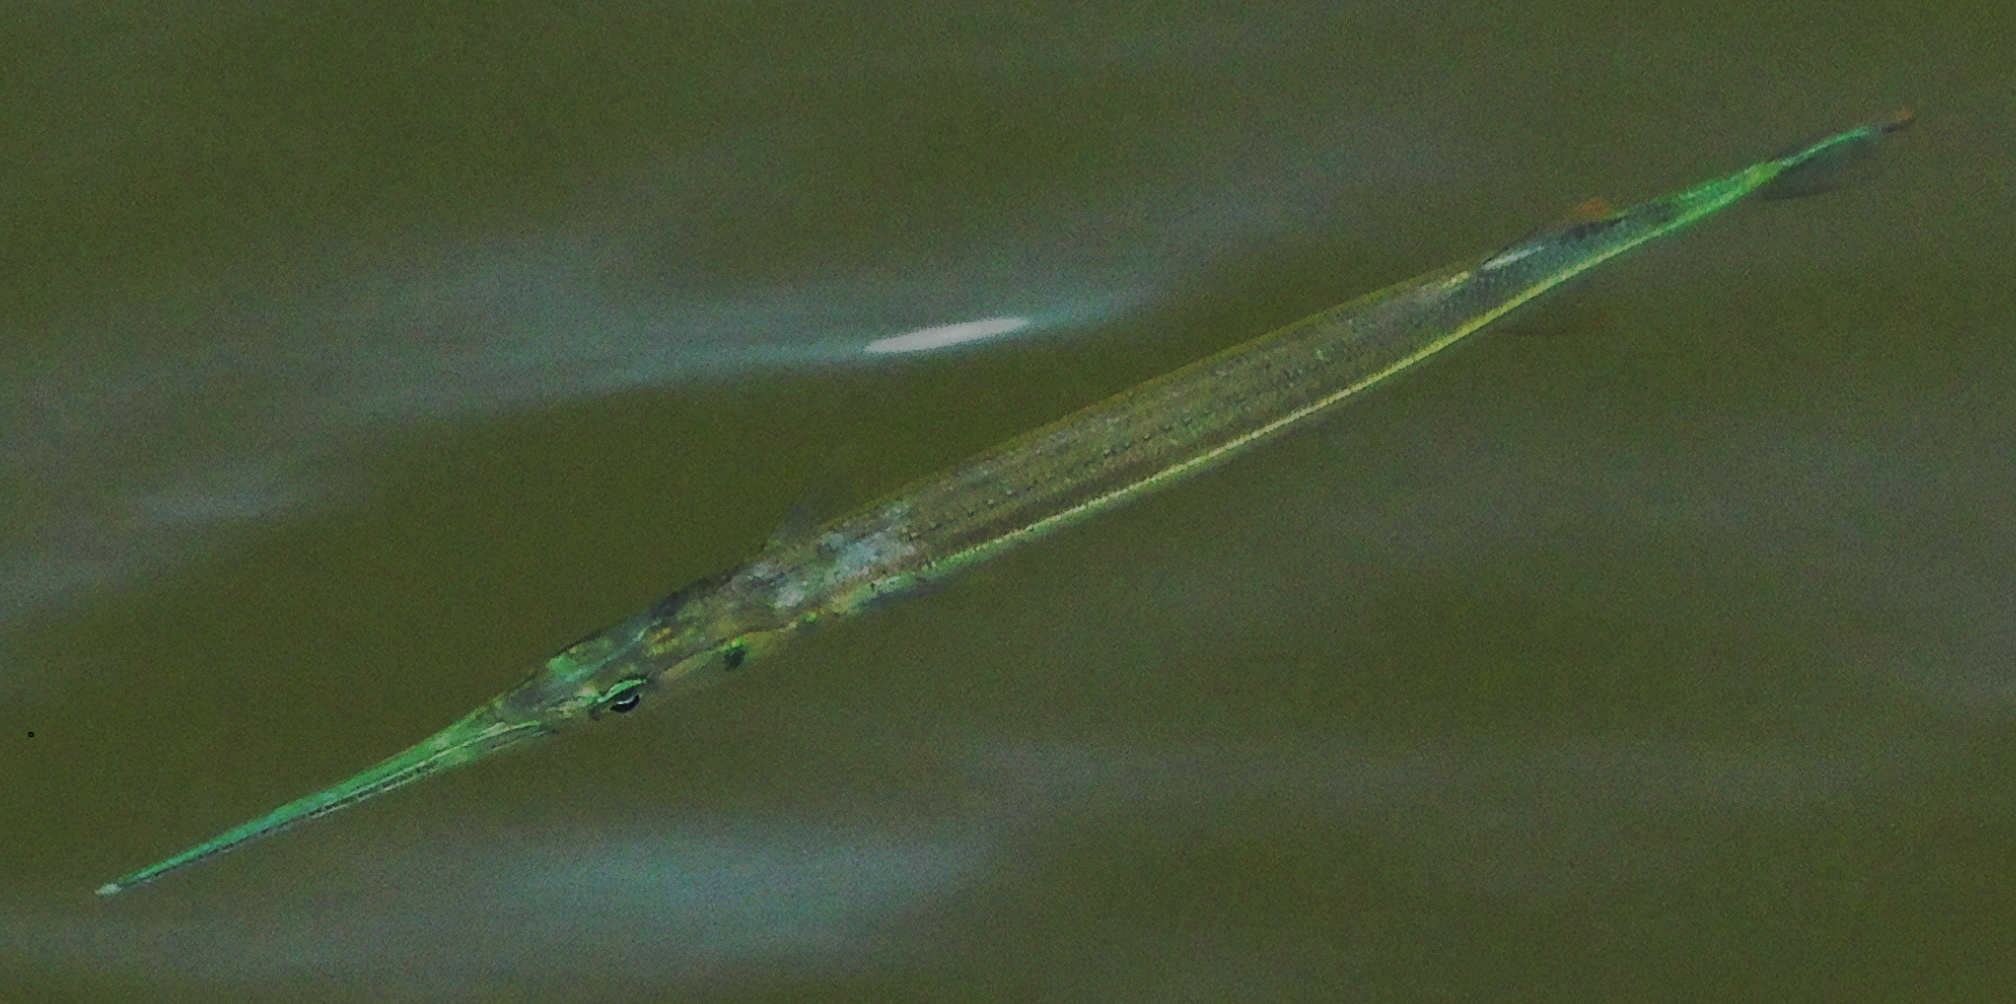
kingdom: Animalia
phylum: Chordata
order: Beloniformes
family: Belonidae
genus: Strongylura
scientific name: Strongylura marina
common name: Atlantic needlefish
